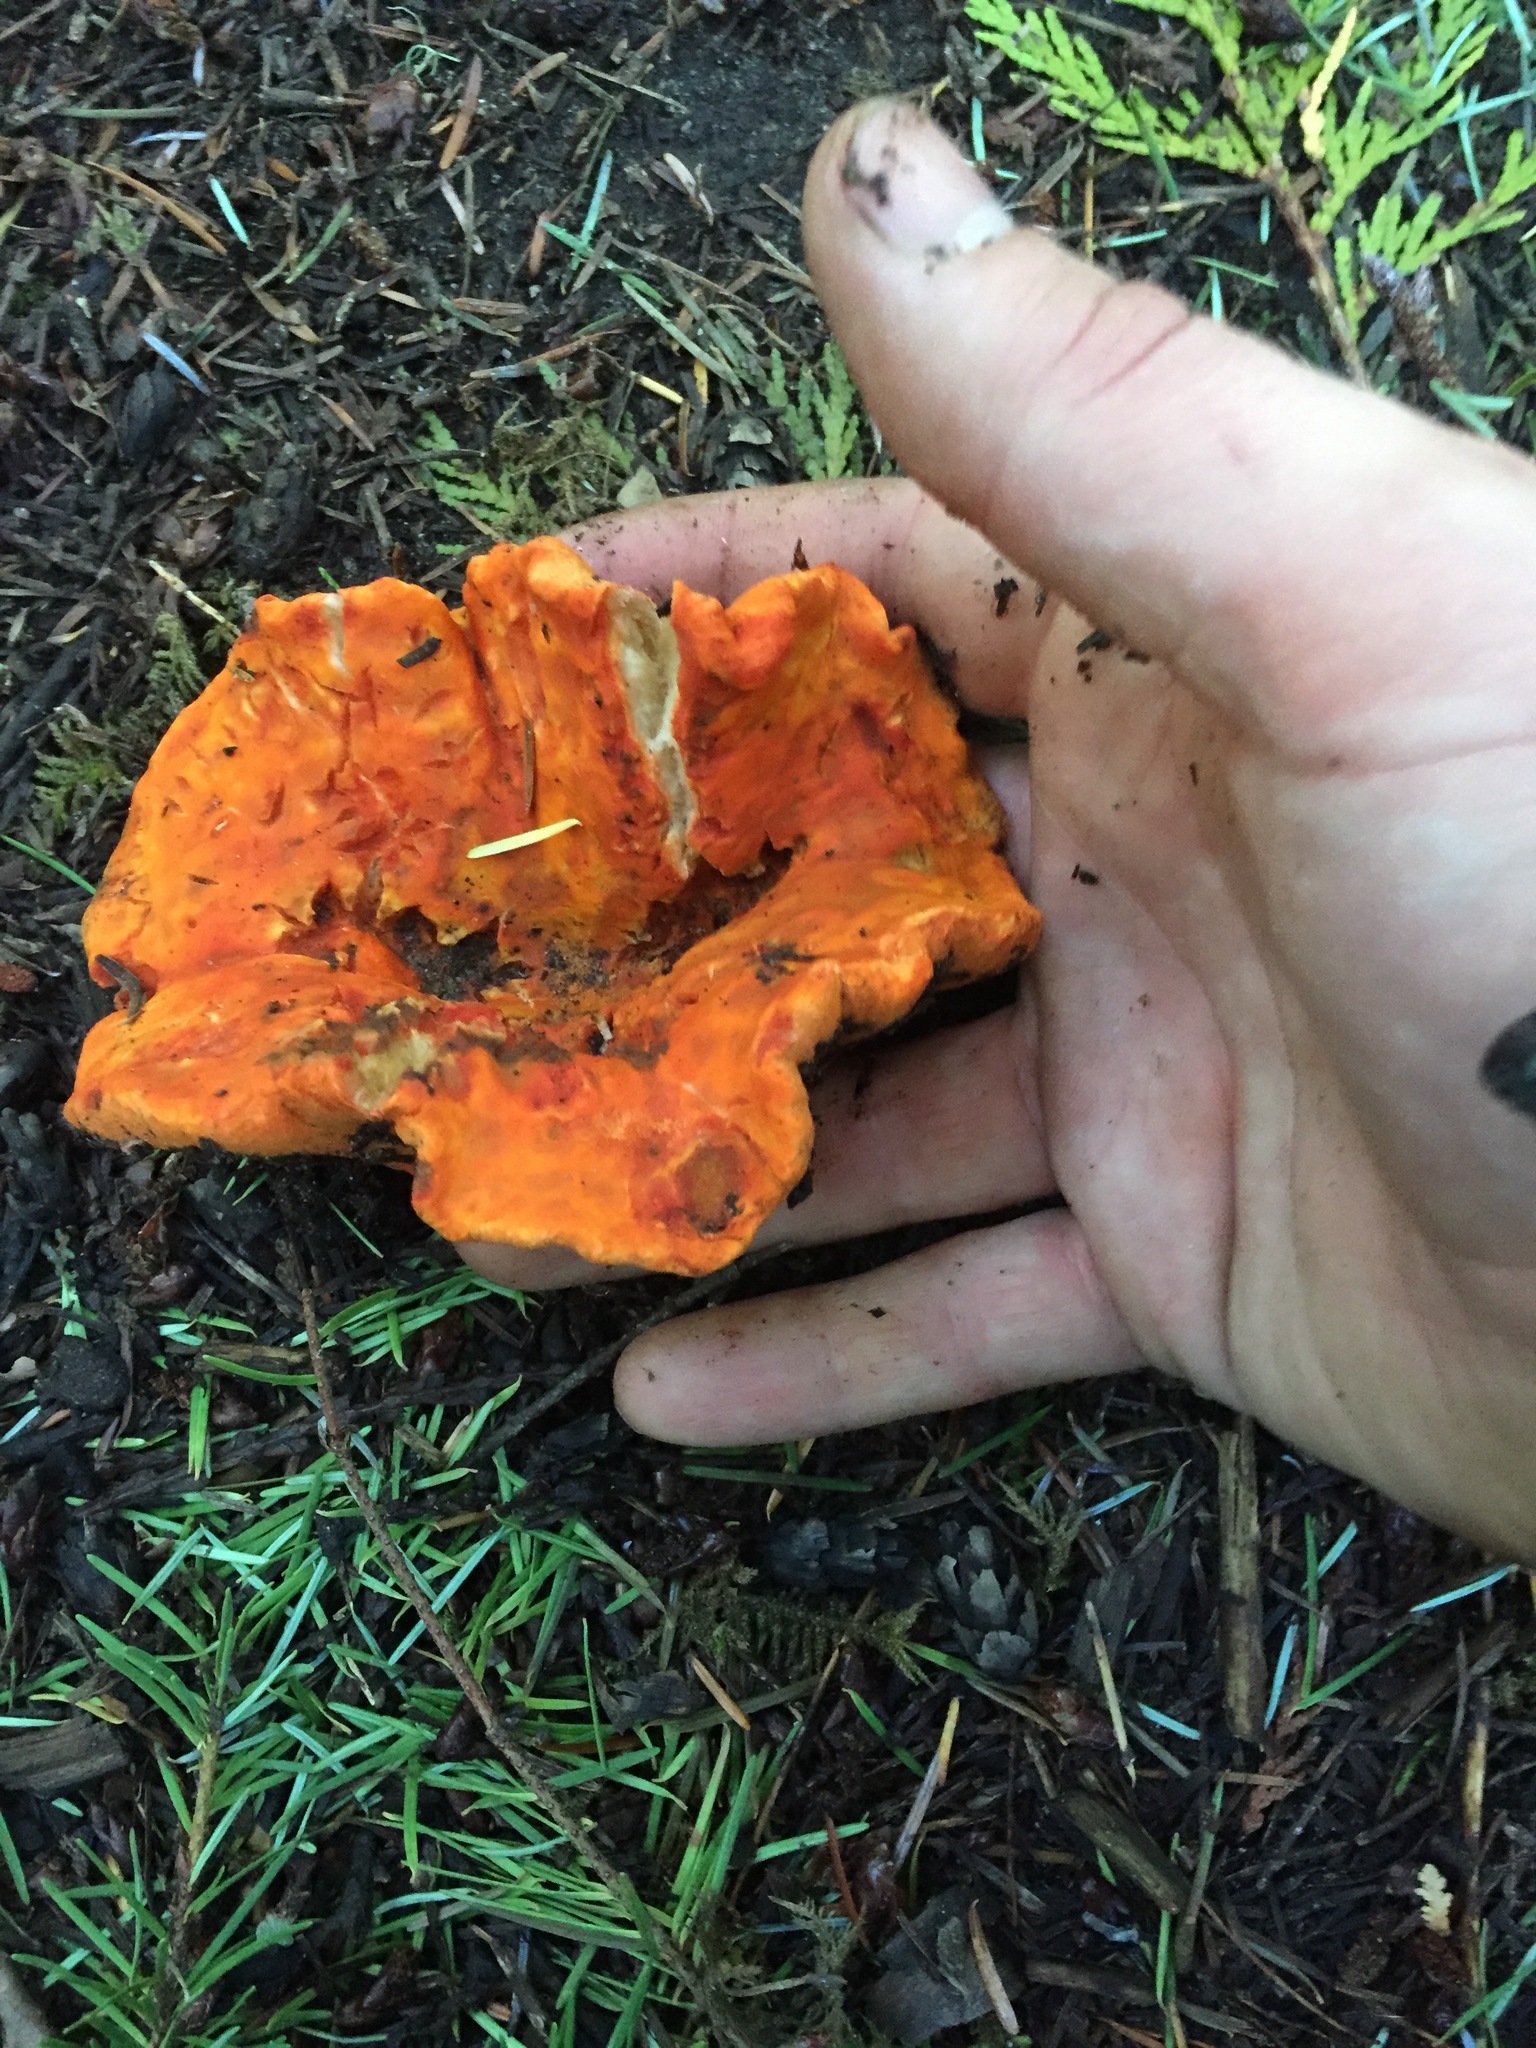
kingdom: Fungi
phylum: Ascomycota
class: Sordariomycetes
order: Hypocreales
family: Hypocreaceae
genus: Hypomyces
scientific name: Hypomyces lactifluorum
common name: Lobster mushroom
